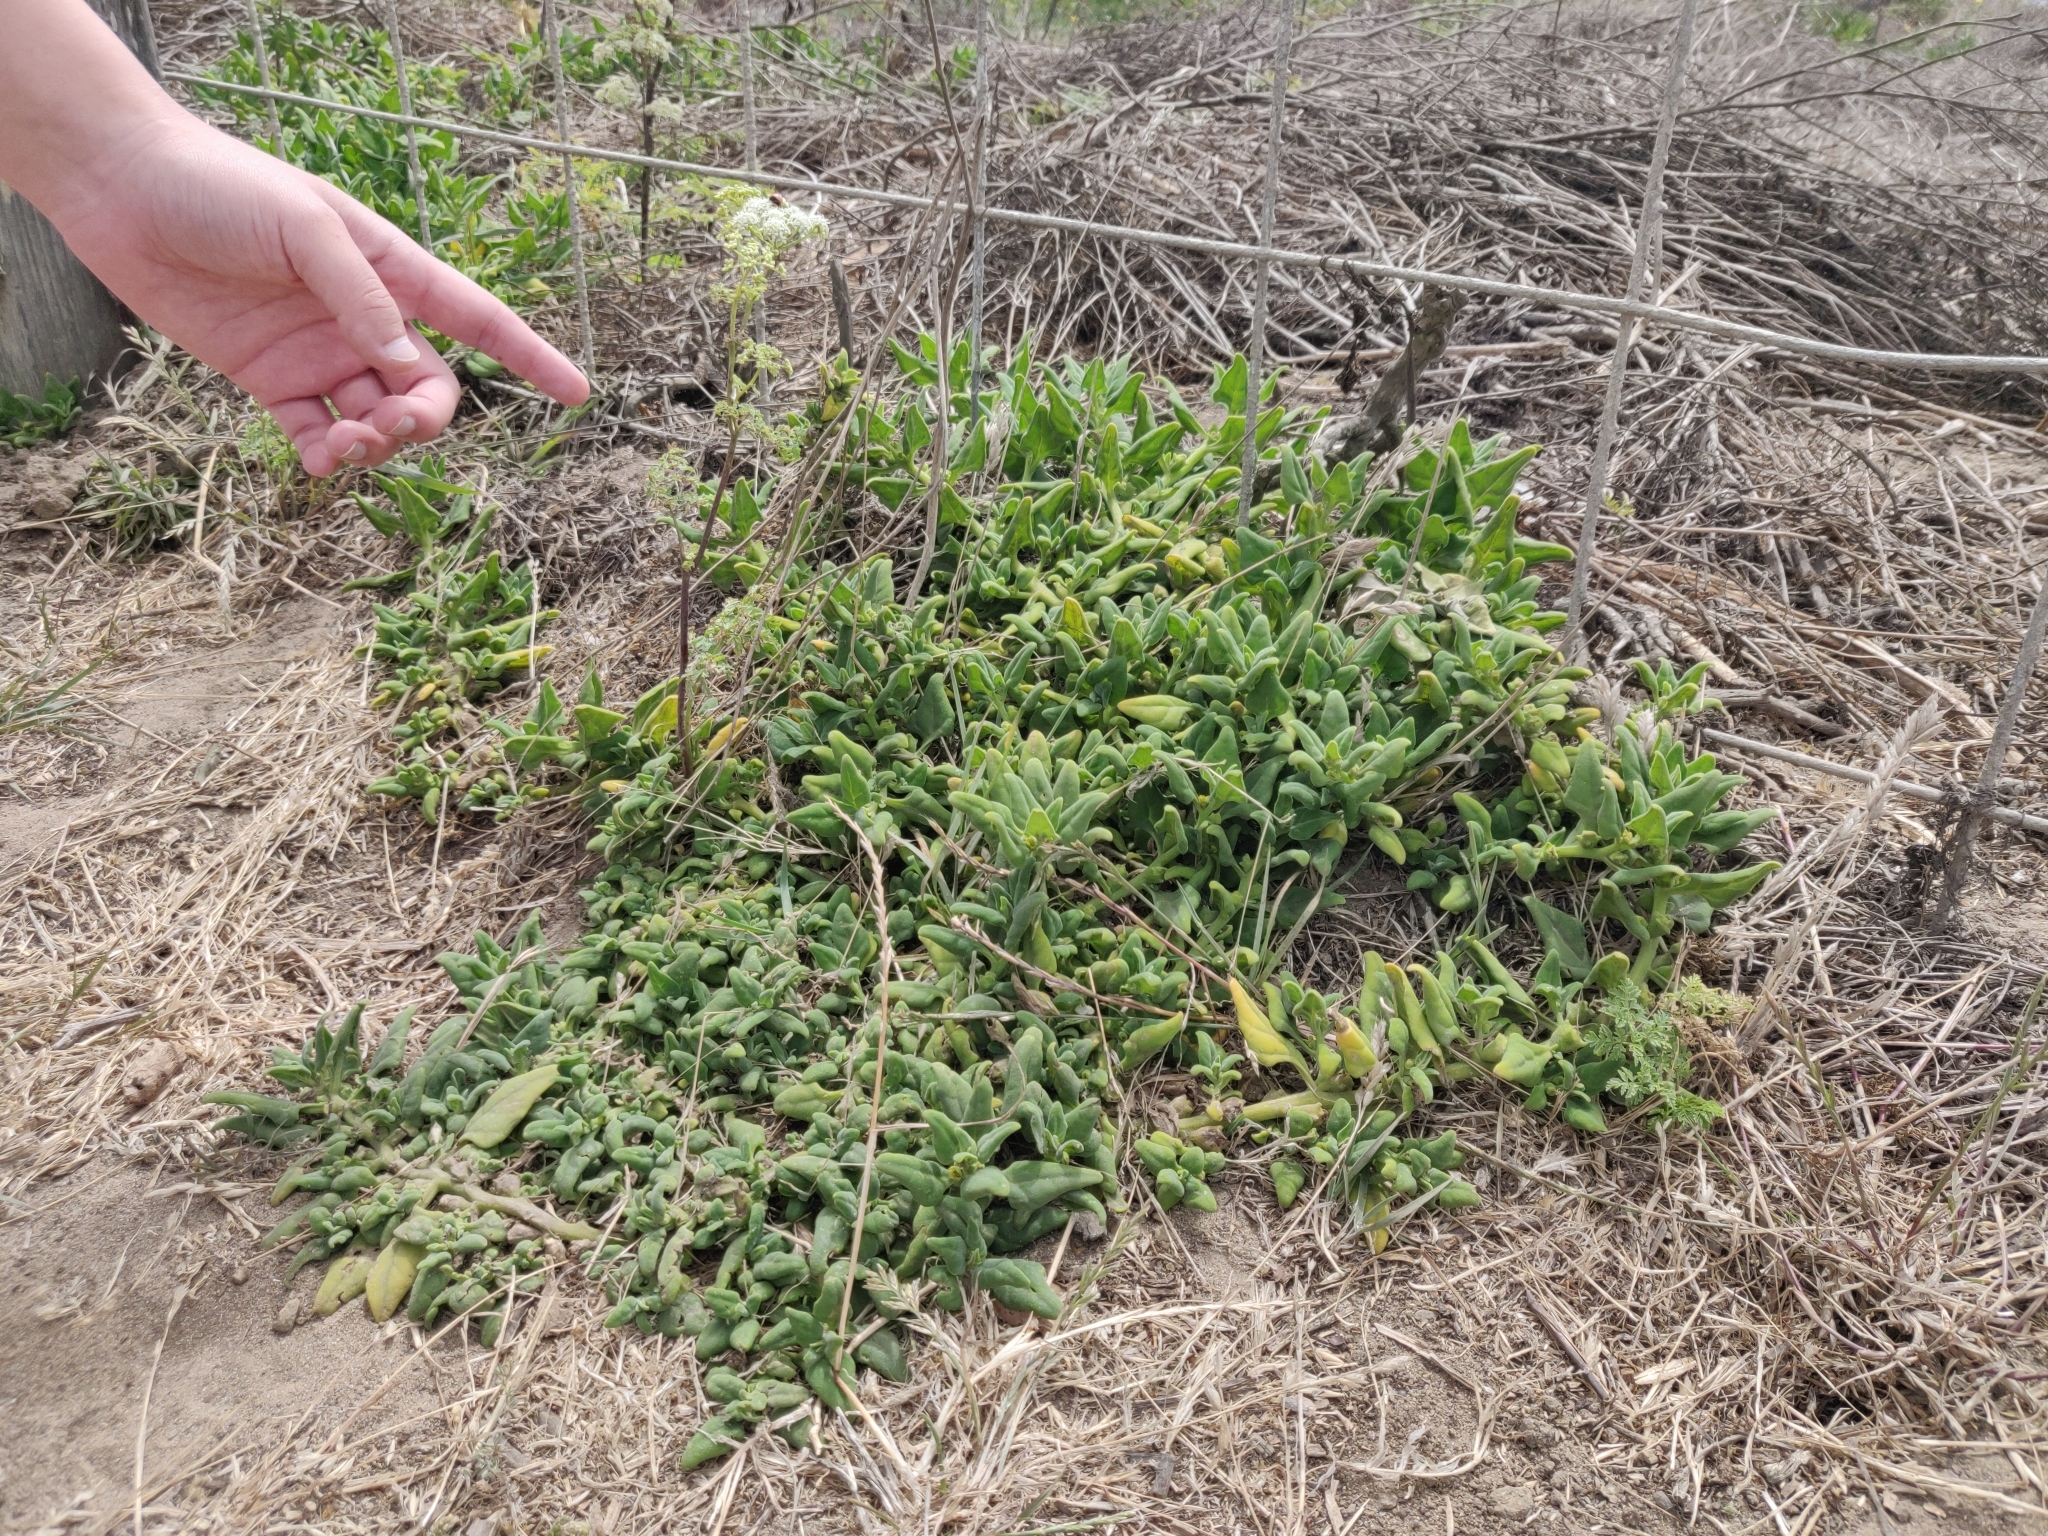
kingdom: Plantae
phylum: Tracheophyta
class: Magnoliopsida
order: Caryophyllales
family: Aizoaceae
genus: Tetragonia
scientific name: Tetragonia tetragonoides
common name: New zealand-spinach
